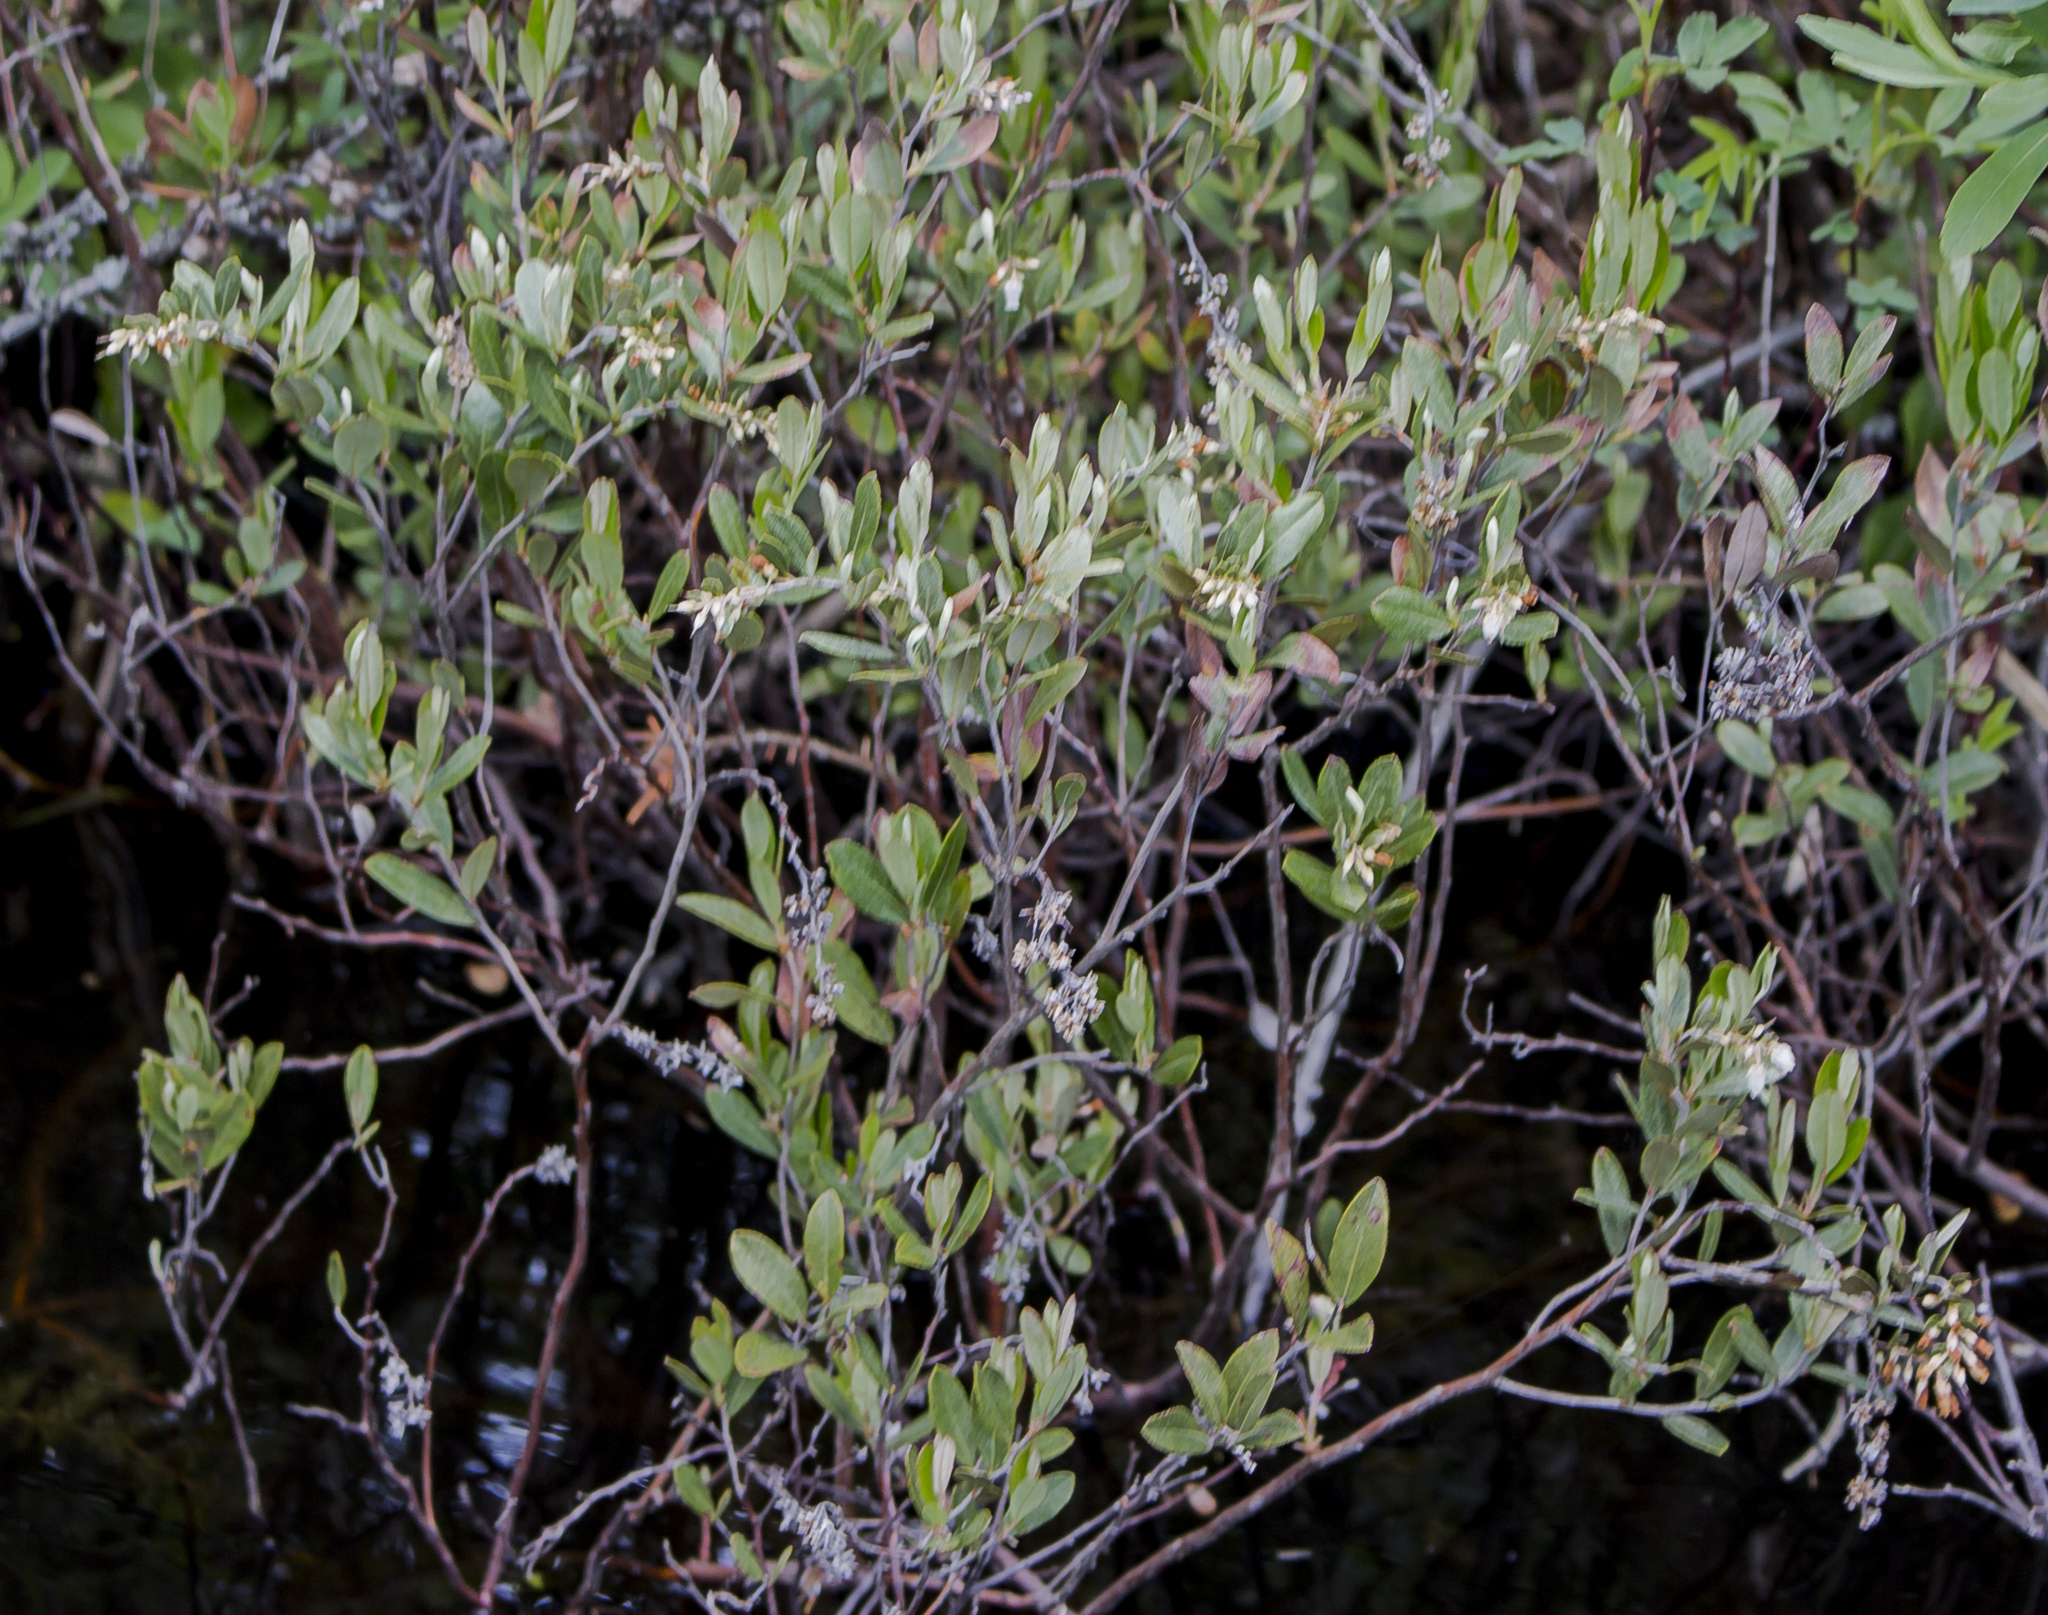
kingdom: Plantae
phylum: Tracheophyta
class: Magnoliopsida
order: Ericales
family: Ericaceae
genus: Chamaedaphne
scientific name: Chamaedaphne calyculata
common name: Leatherleaf
